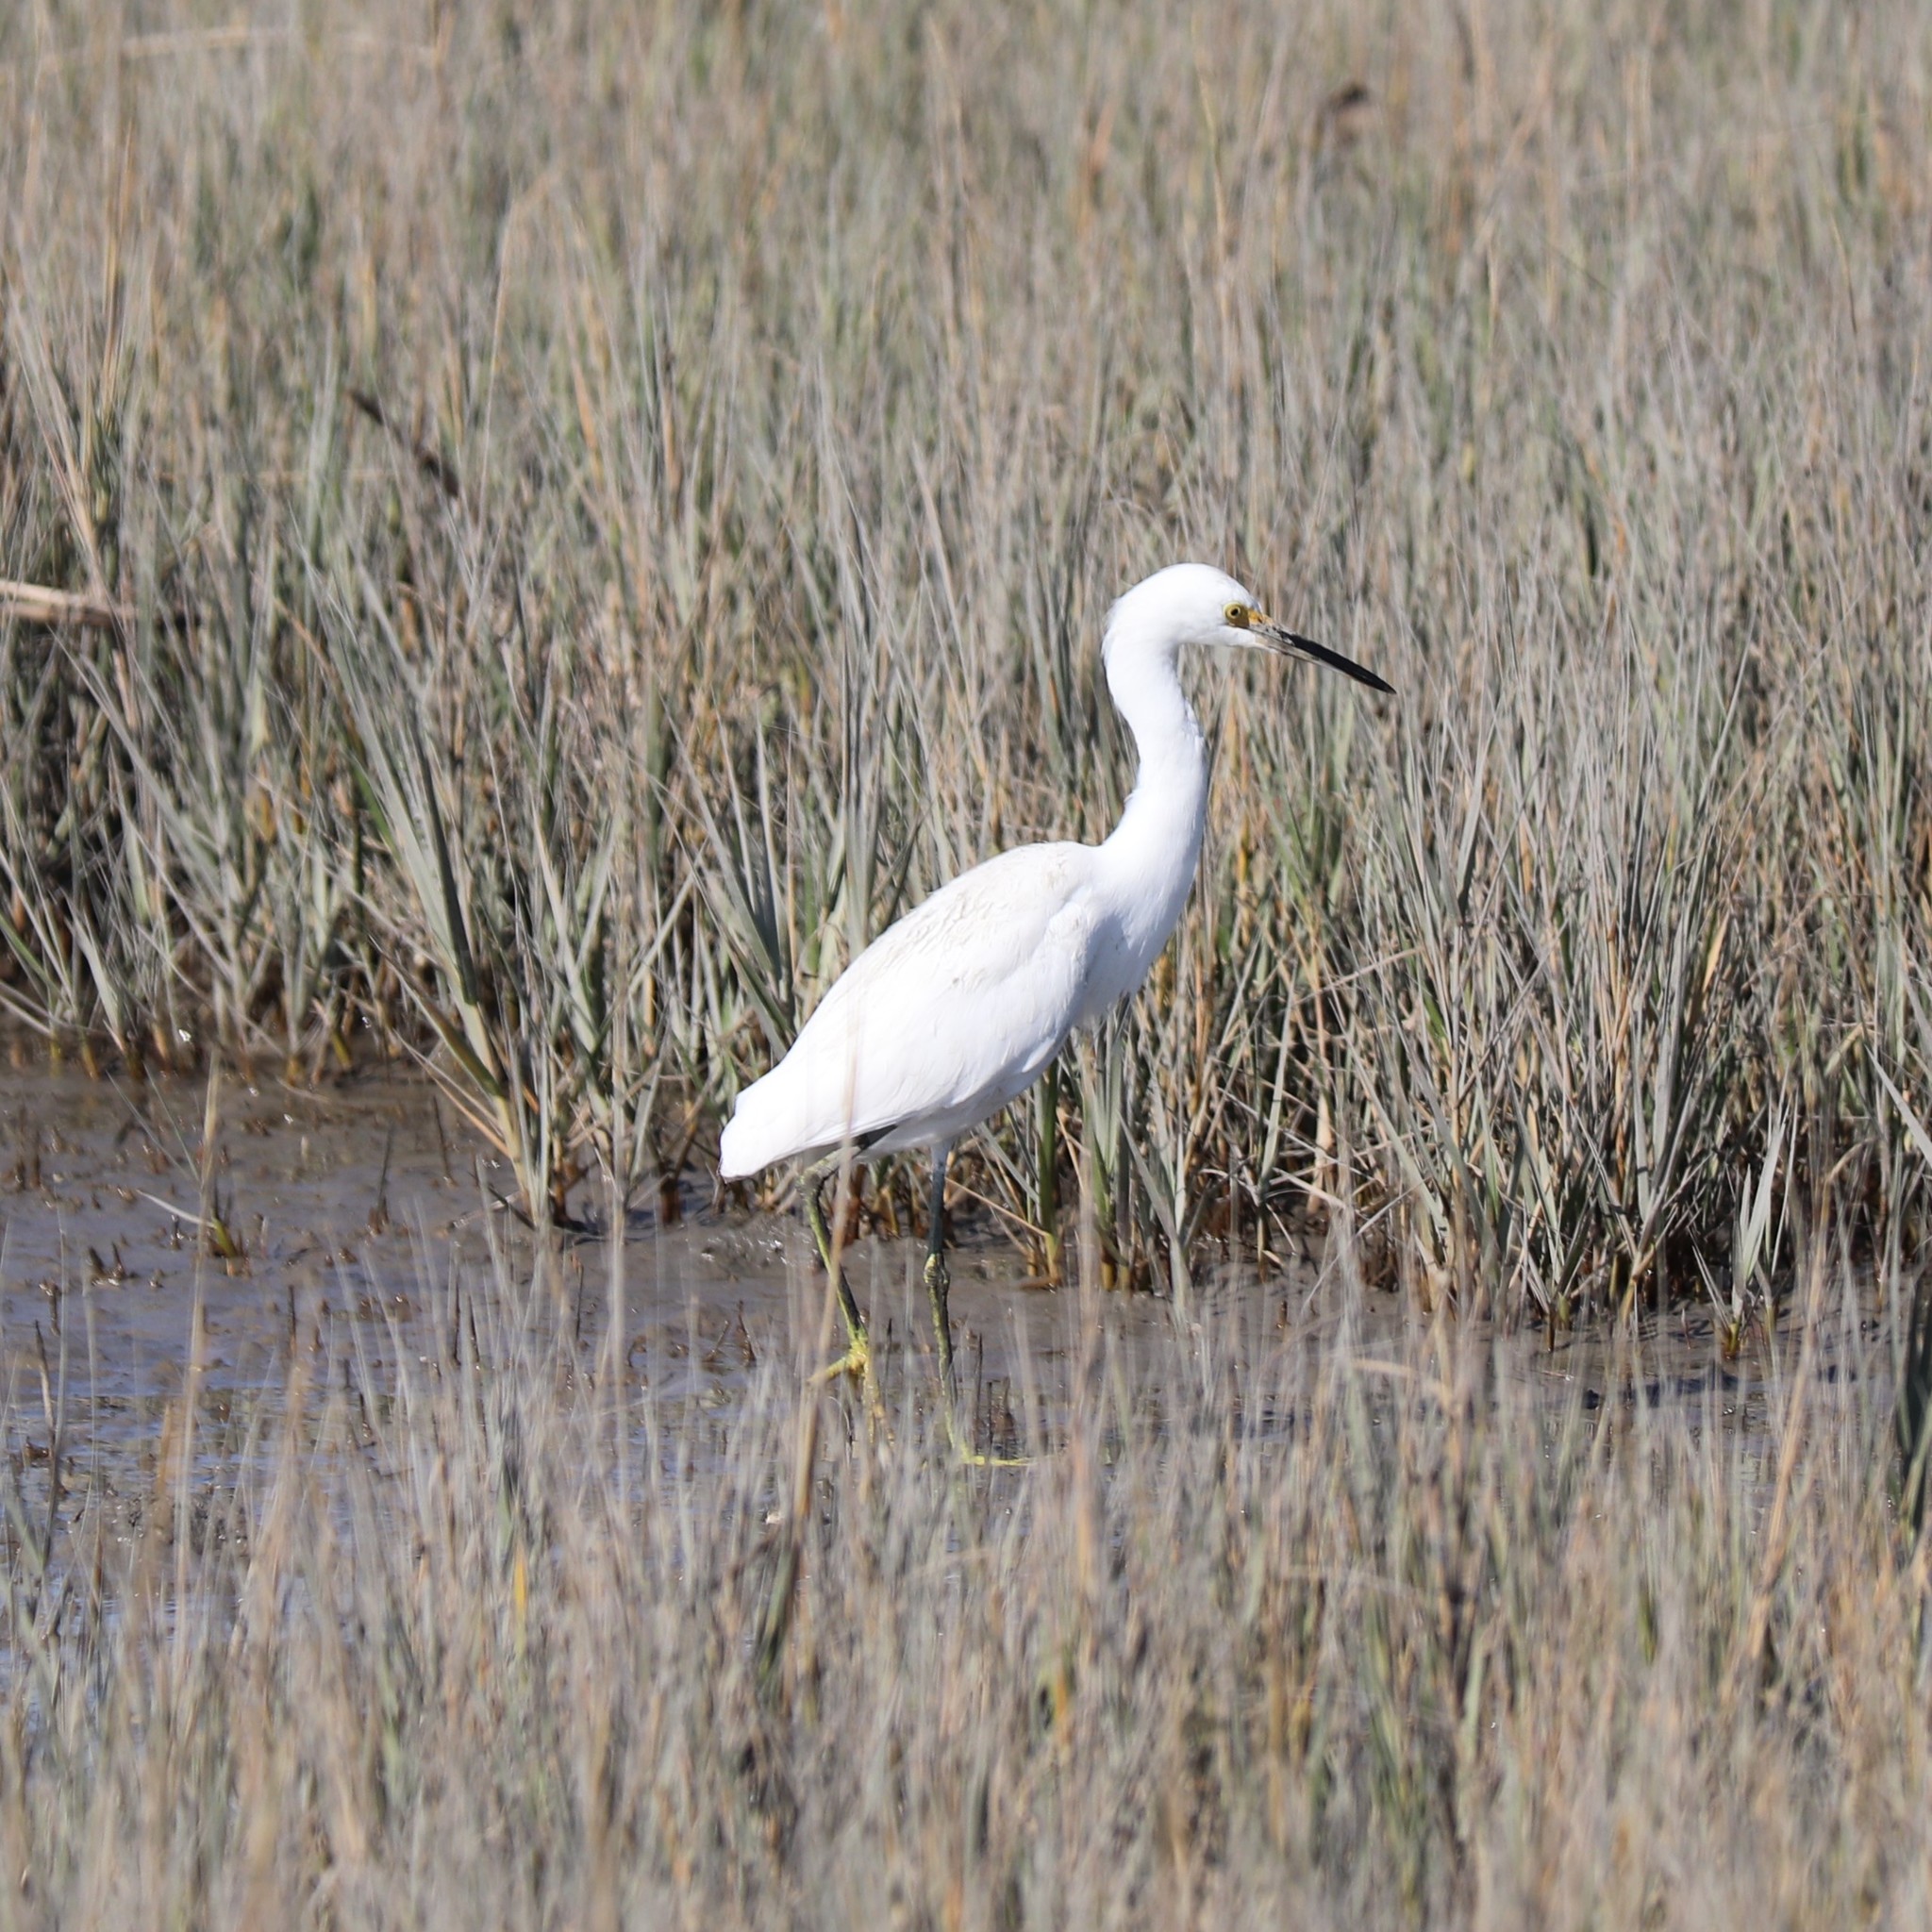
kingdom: Animalia
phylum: Chordata
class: Aves
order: Pelecaniformes
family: Ardeidae
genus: Egretta
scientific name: Egretta thula
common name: Snowy egret
